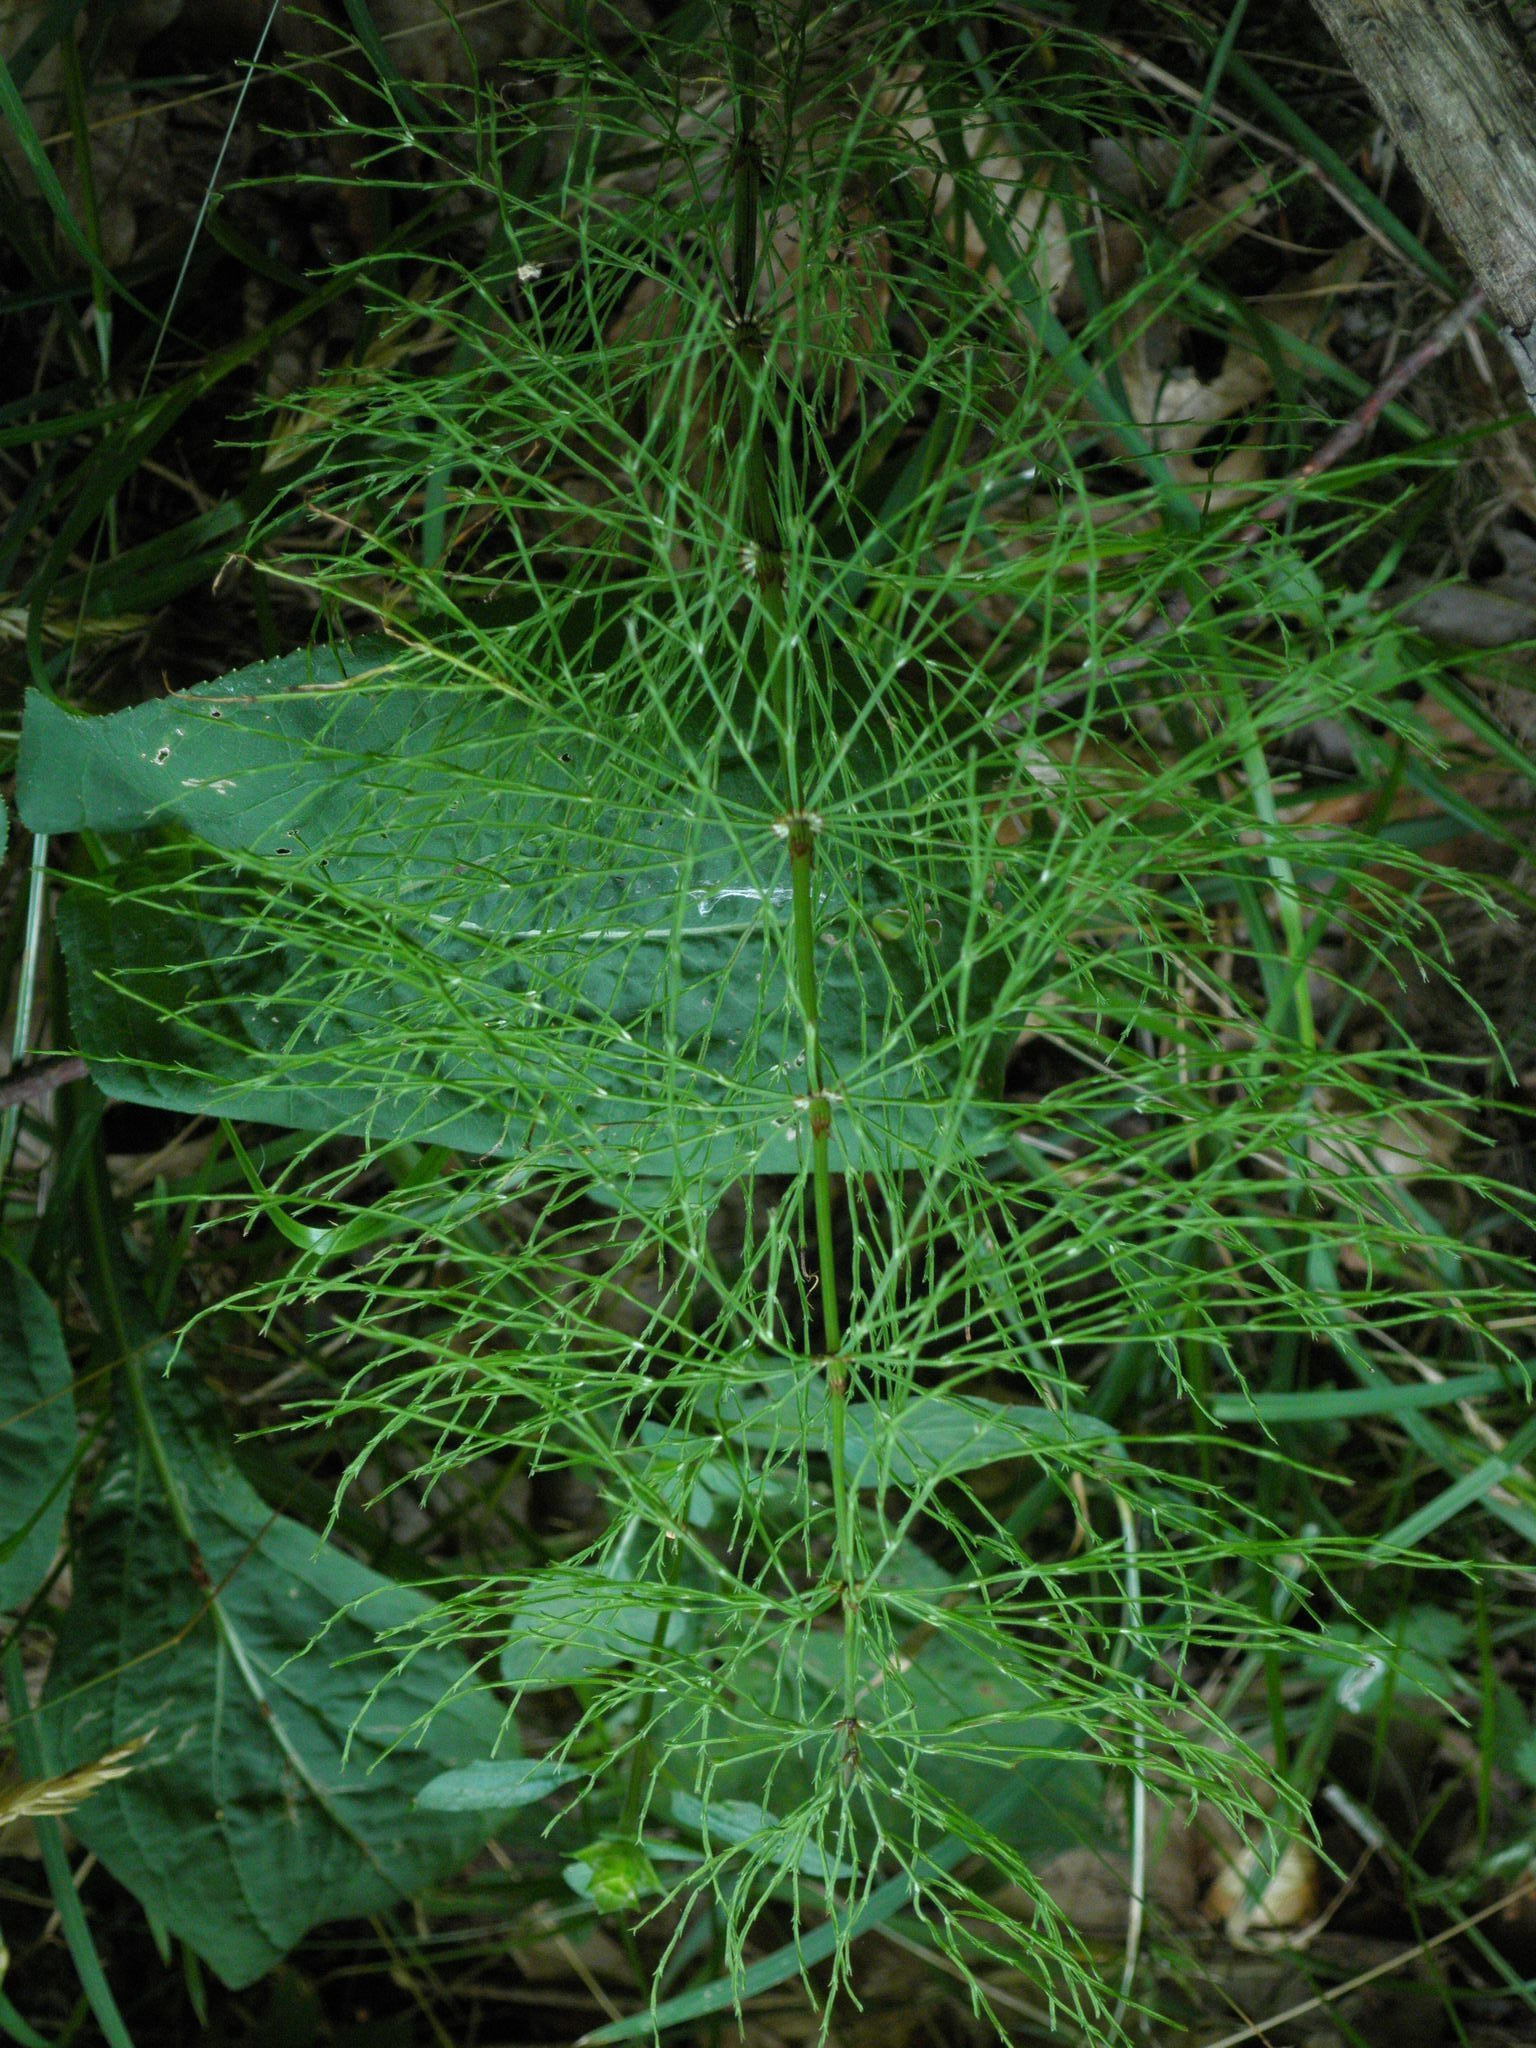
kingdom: Plantae
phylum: Tracheophyta
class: Polypodiopsida
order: Equisetales
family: Equisetaceae
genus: Equisetum
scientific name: Equisetum sylvaticum
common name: Wood horsetail
